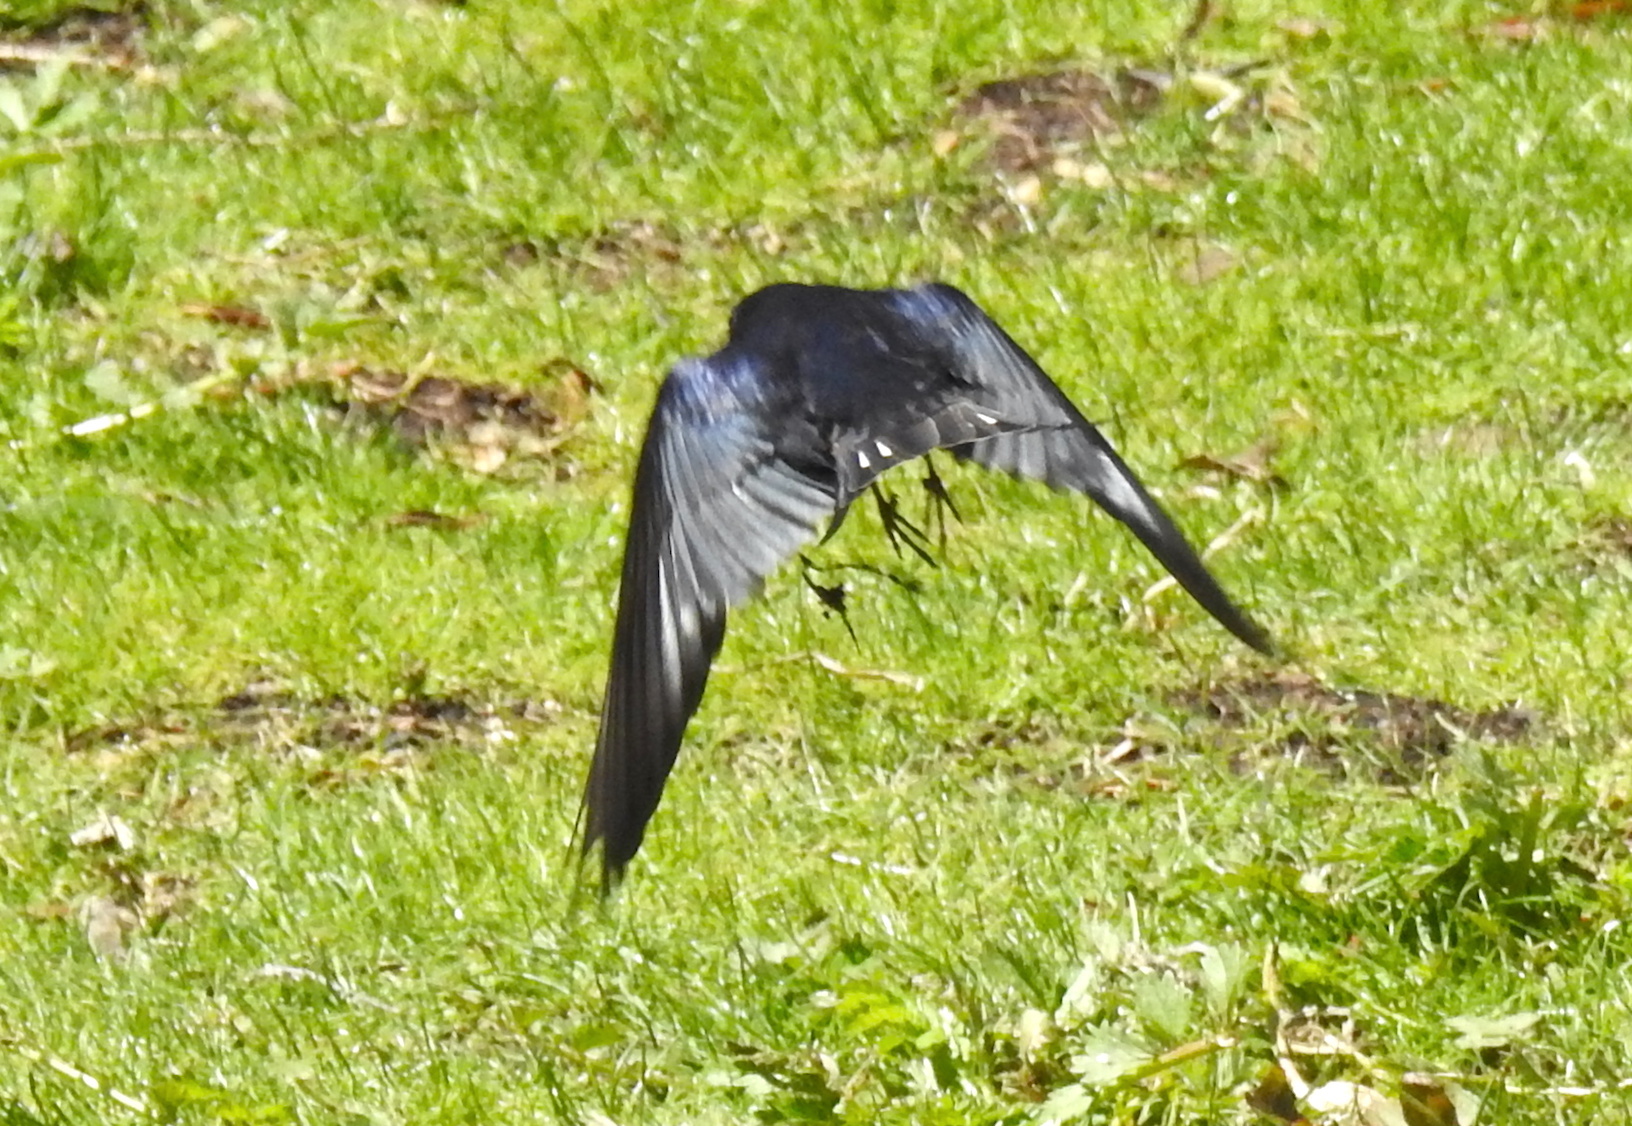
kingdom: Animalia
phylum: Chordata
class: Aves
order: Passeriformes
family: Hirundinidae
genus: Hirundo
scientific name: Hirundo rustica
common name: Barn swallow
